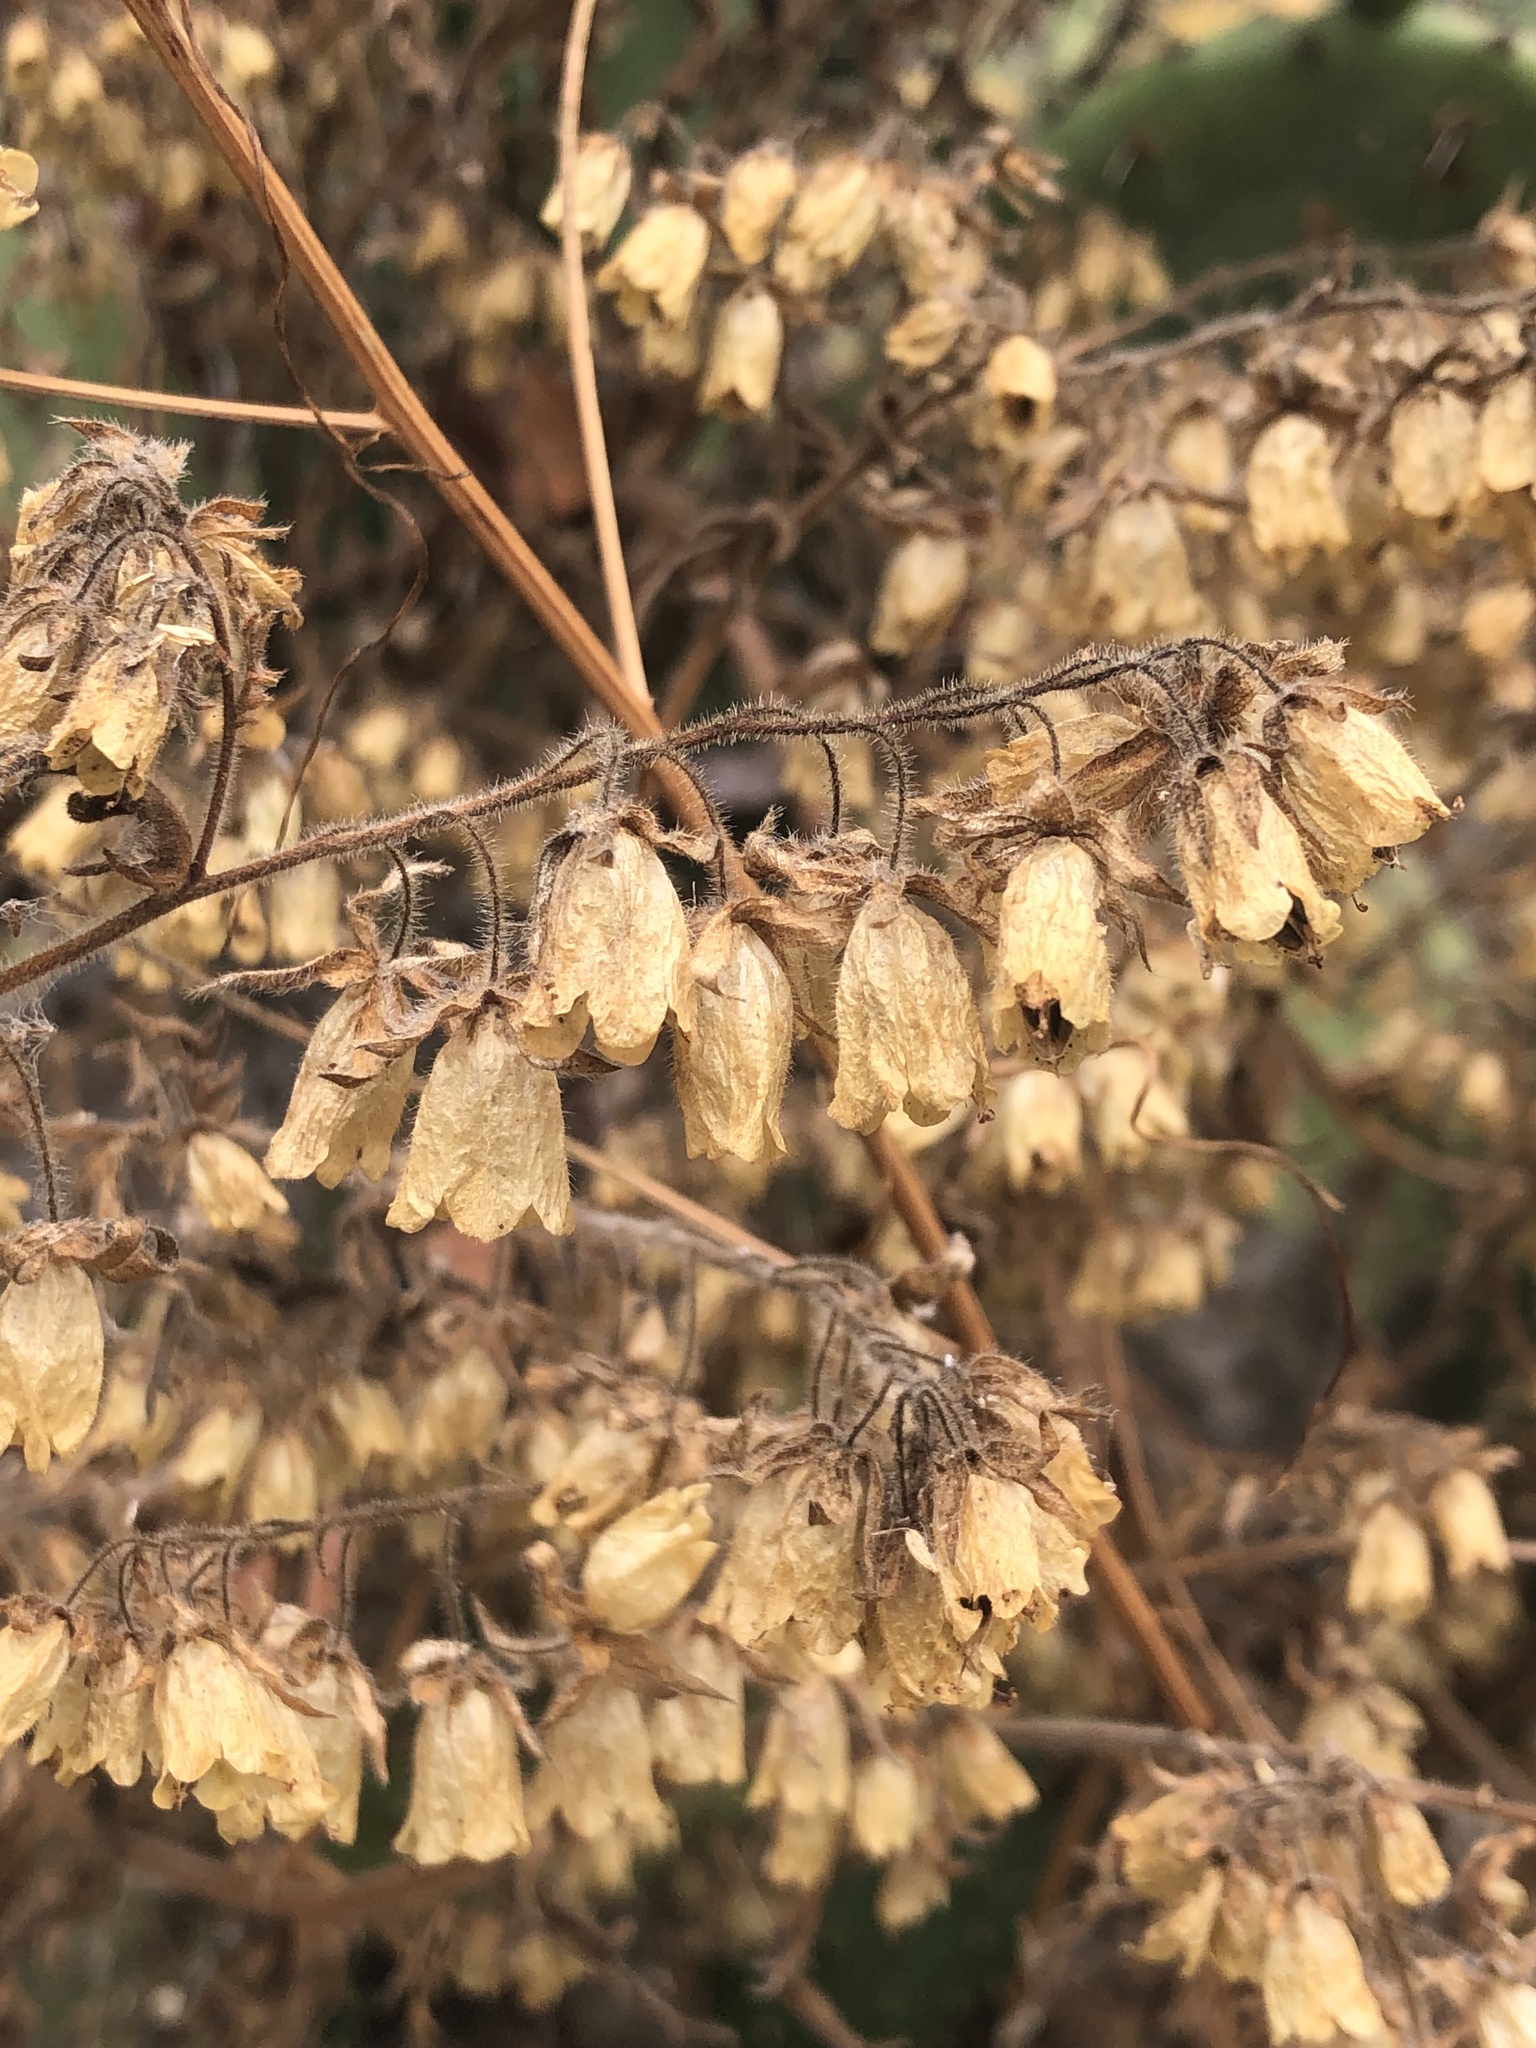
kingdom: Plantae
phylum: Tracheophyta
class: Magnoliopsida
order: Boraginales
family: Hydrophyllaceae
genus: Emmenanthe
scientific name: Emmenanthe penduliflora
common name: Whispering-bells
